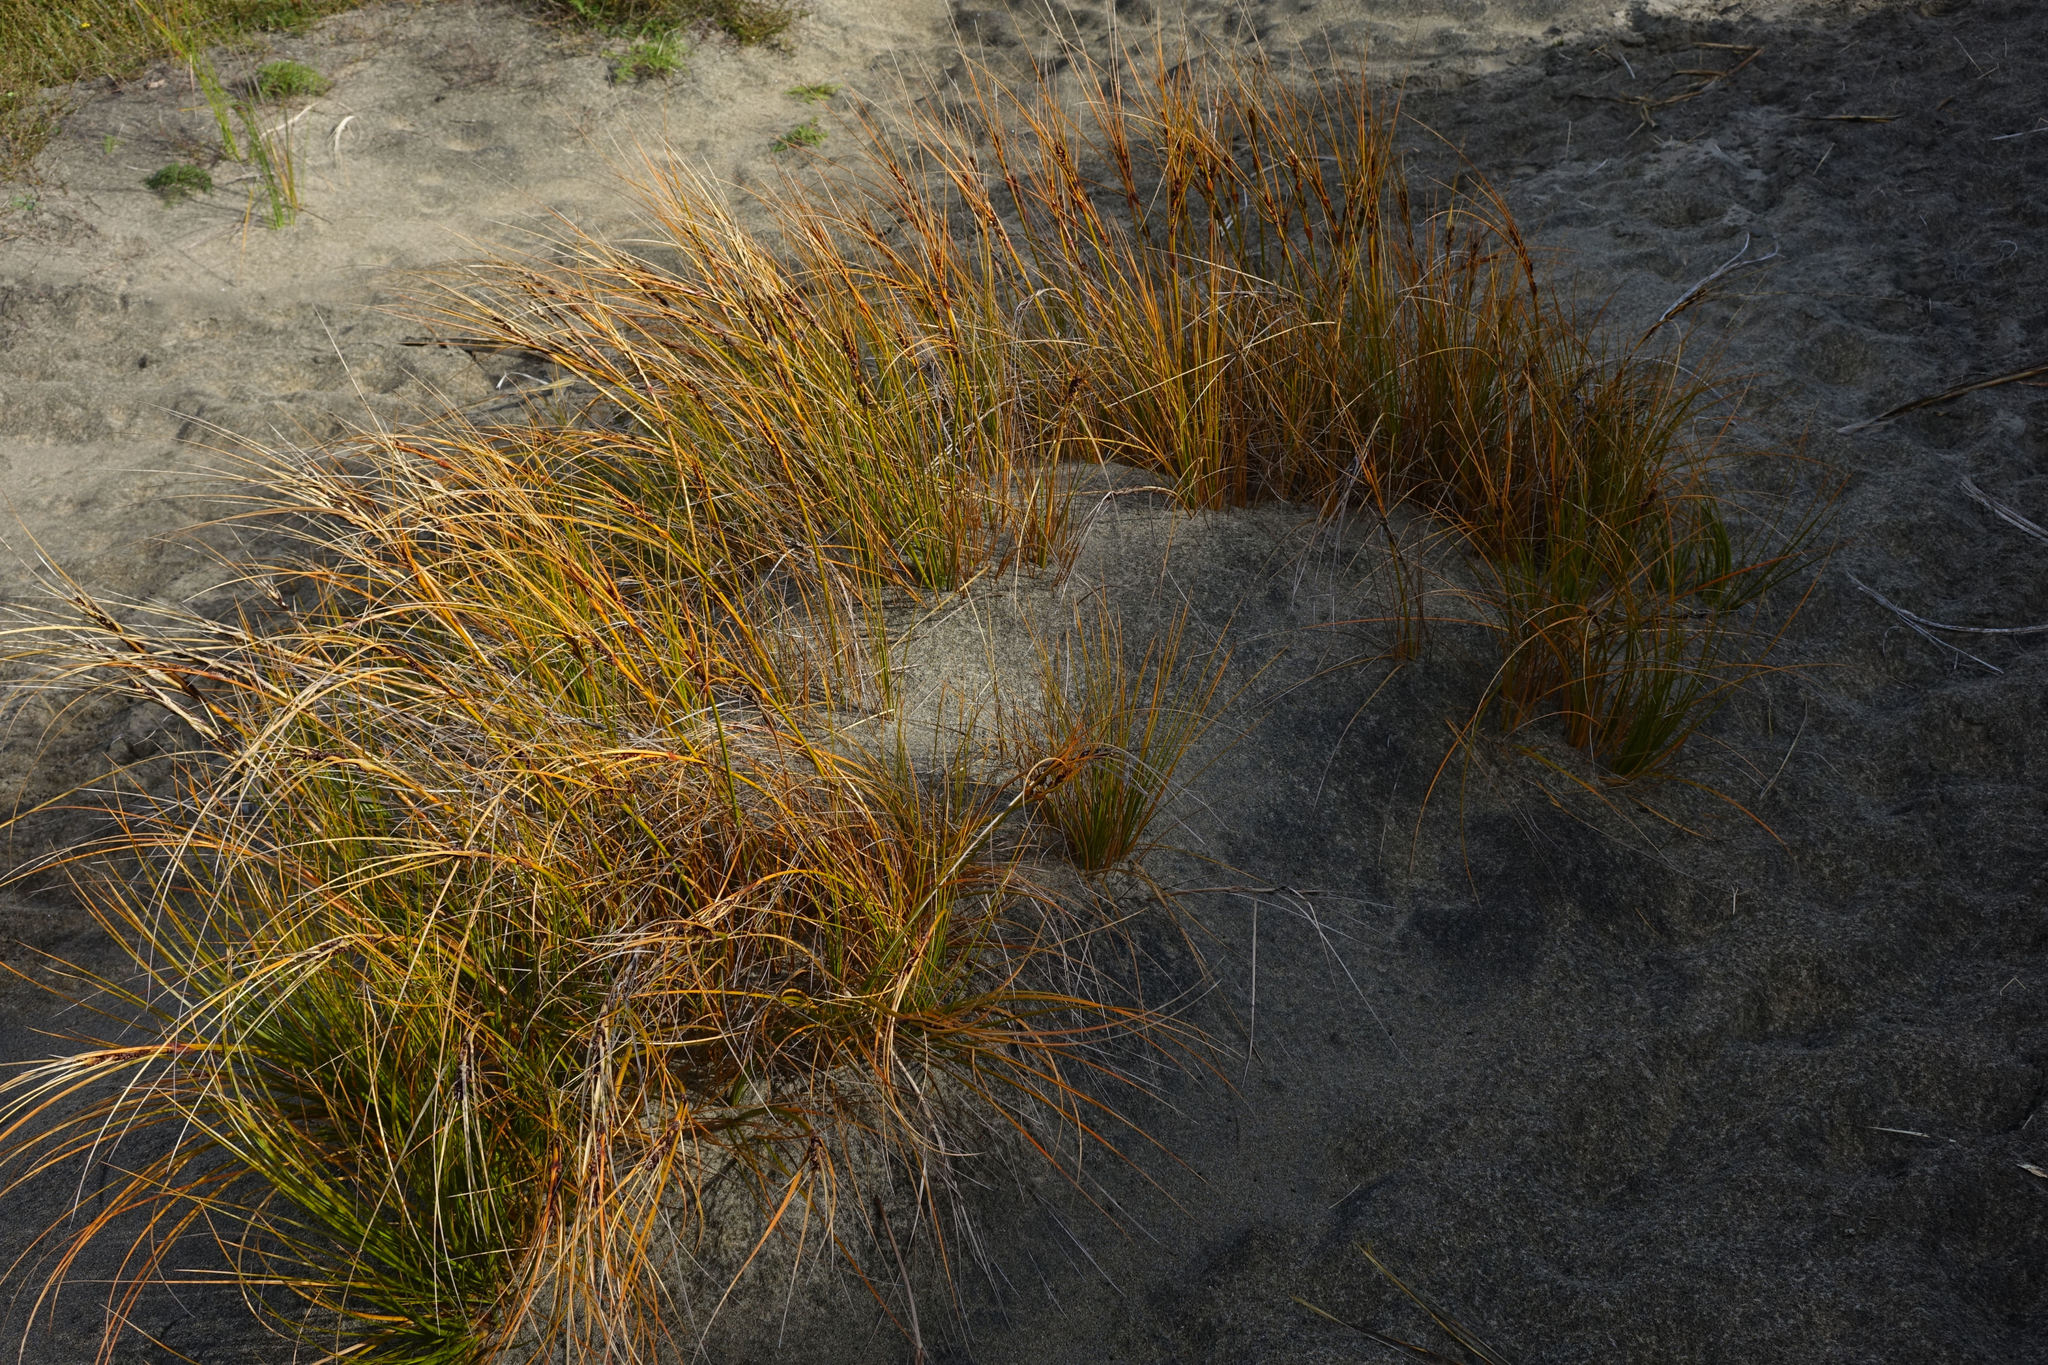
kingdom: Plantae
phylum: Tracheophyta
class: Liliopsida
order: Poales
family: Cyperaceae
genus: Ficinia
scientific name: Ficinia spiralis
